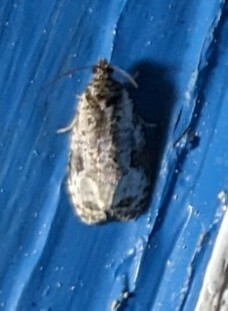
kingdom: Animalia
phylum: Arthropoda
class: Insecta
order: Lepidoptera
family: Tortricidae
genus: Apotomis
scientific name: Apotomis albeolana
